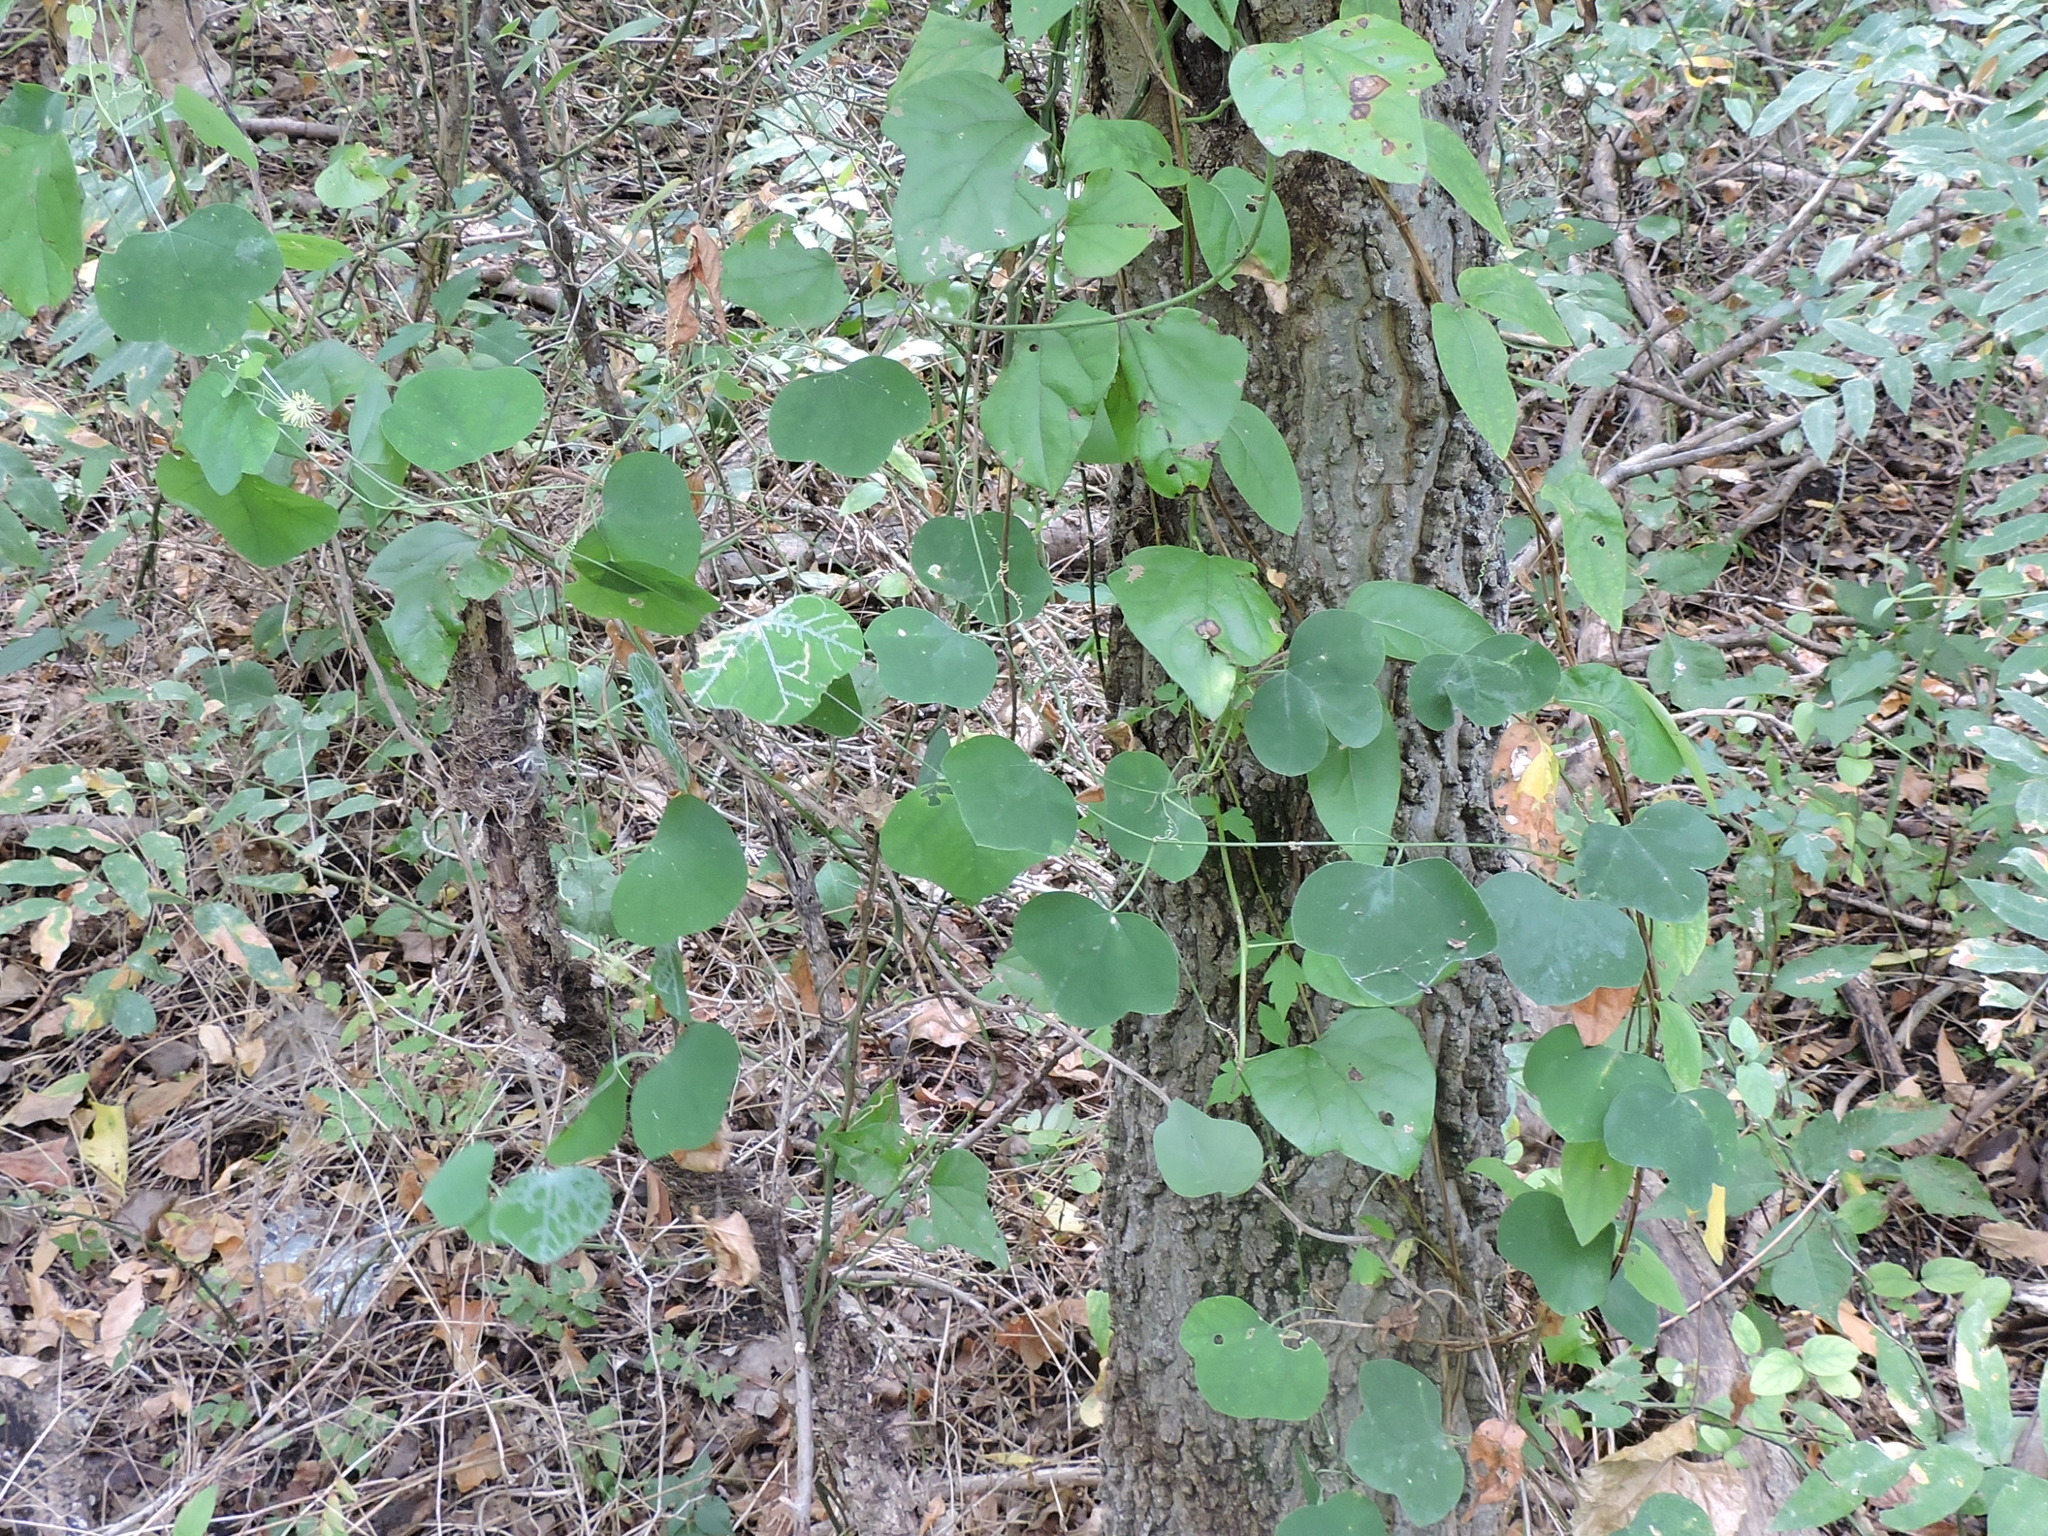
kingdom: Plantae
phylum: Tracheophyta
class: Magnoliopsida
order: Malpighiales
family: Passifloraceae
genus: Passiflora
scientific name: Passiflora lutea
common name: Yellow passionflower
